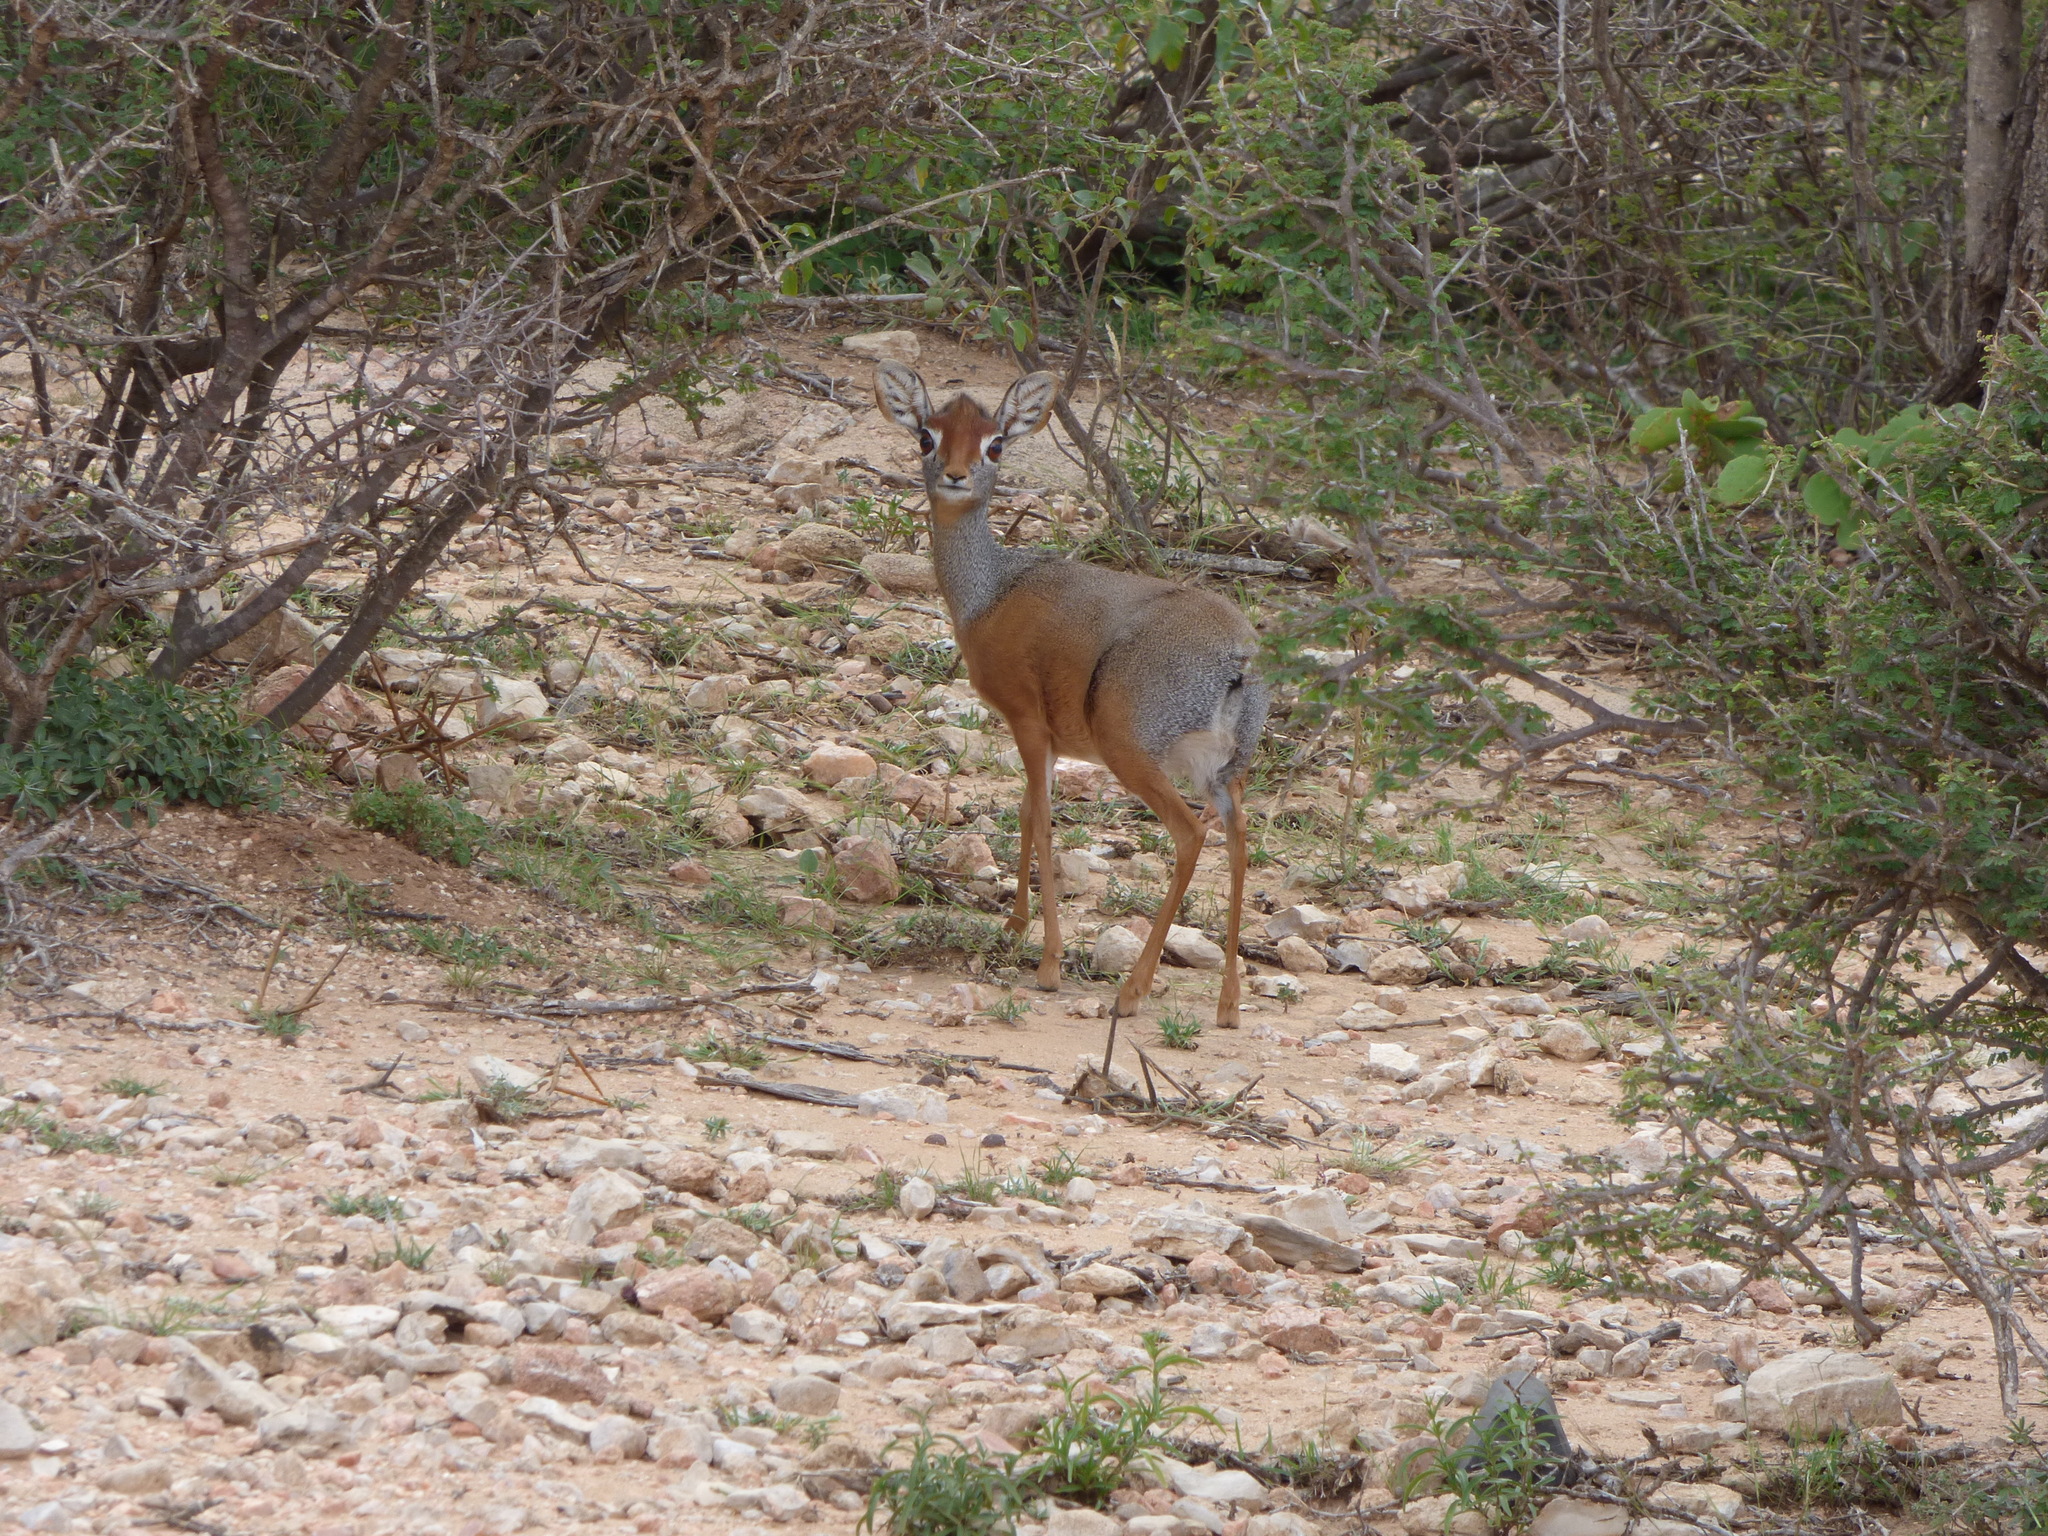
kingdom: Animalia
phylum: Chordata
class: Mammalia
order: Artiodactyla
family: Bovidae
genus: Madoqua
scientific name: Madoqua saltiana
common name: Salt's dikdik
